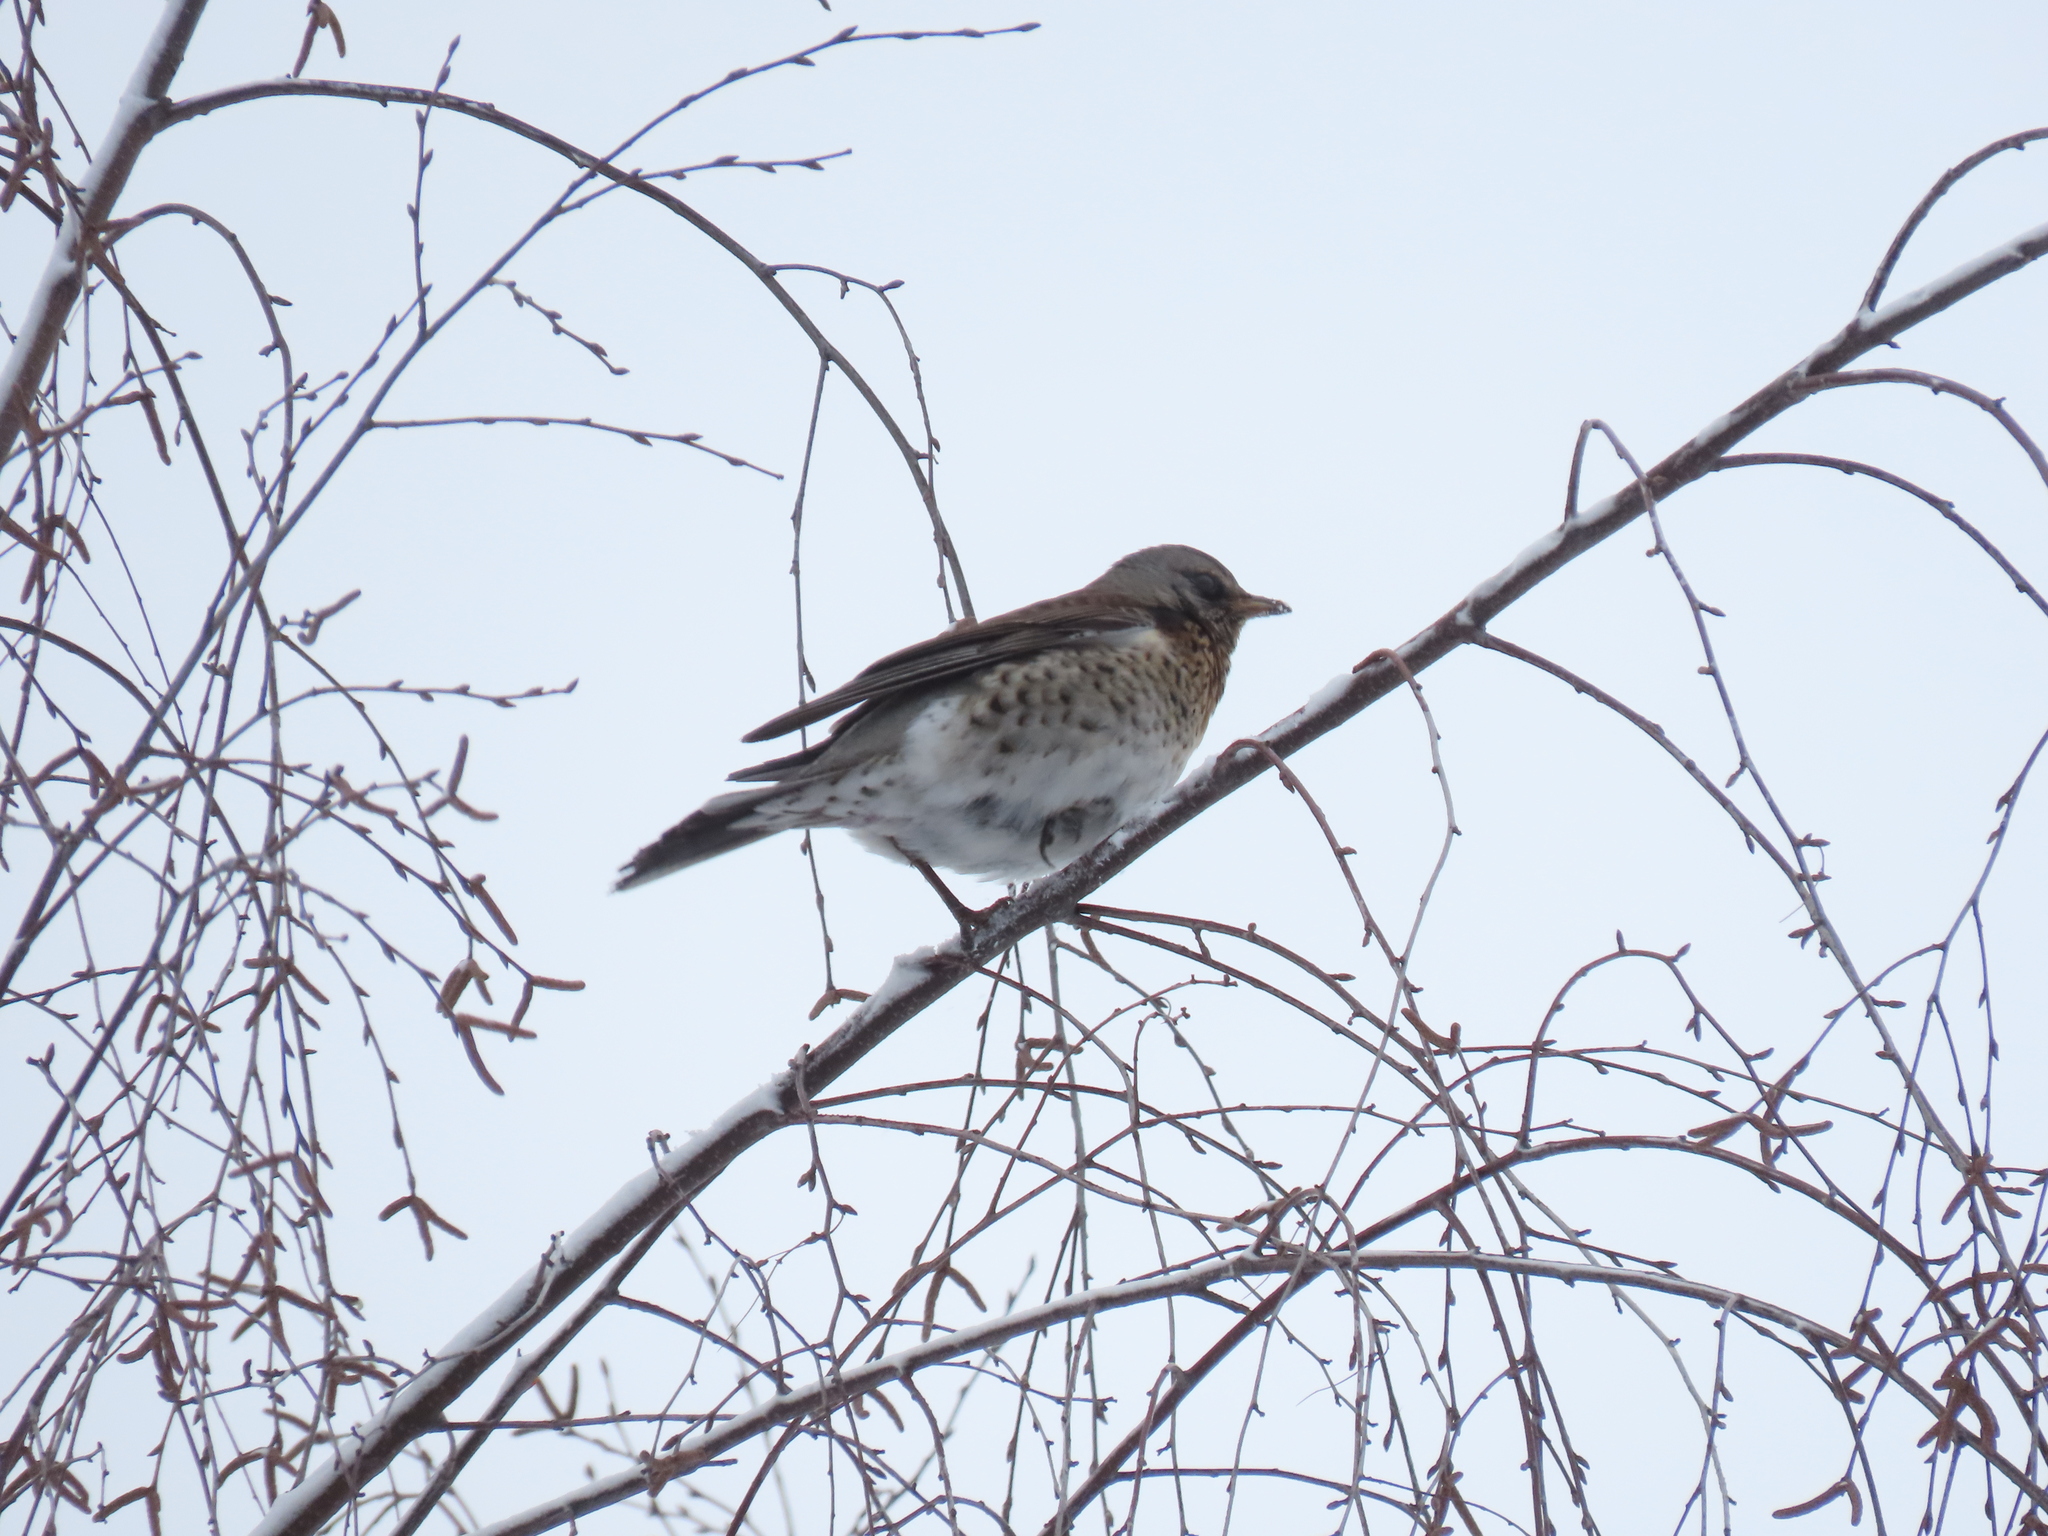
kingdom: Animalia
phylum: Chordata
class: Aves
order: Passeriformes
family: Turdidae
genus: Turdus
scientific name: Turdus pilaris
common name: Fieldfare
